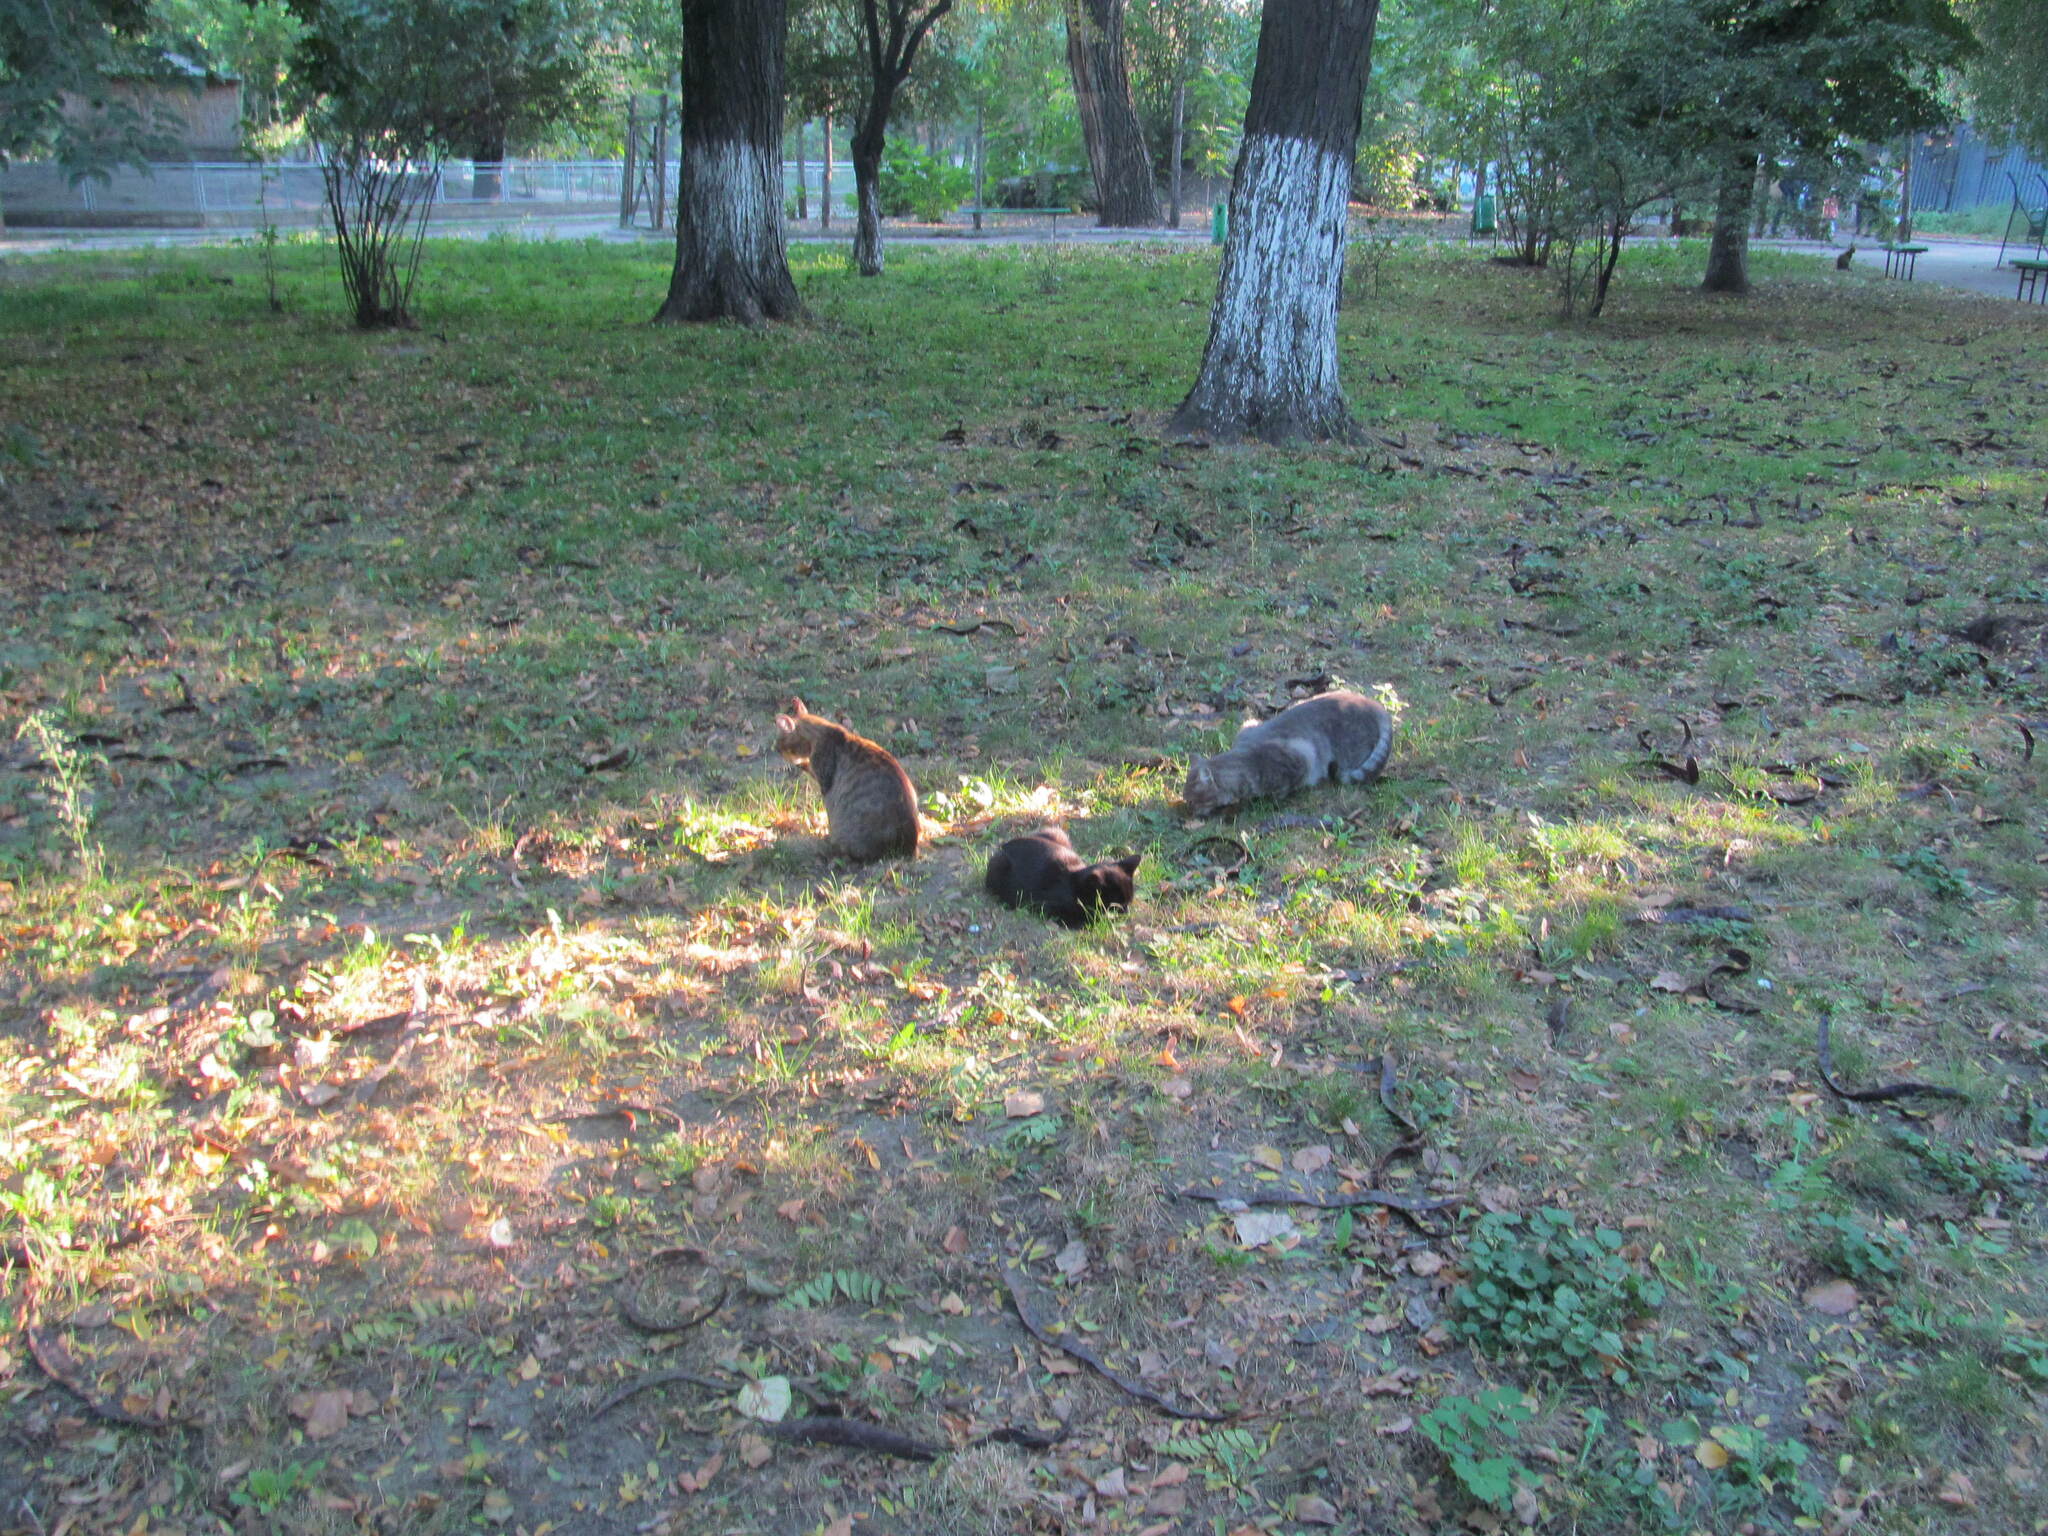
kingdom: Animalia
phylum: Chordata
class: Mammalia
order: Carnivora
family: Felidae
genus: Felis
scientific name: Felis catus
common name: Domestic cat
